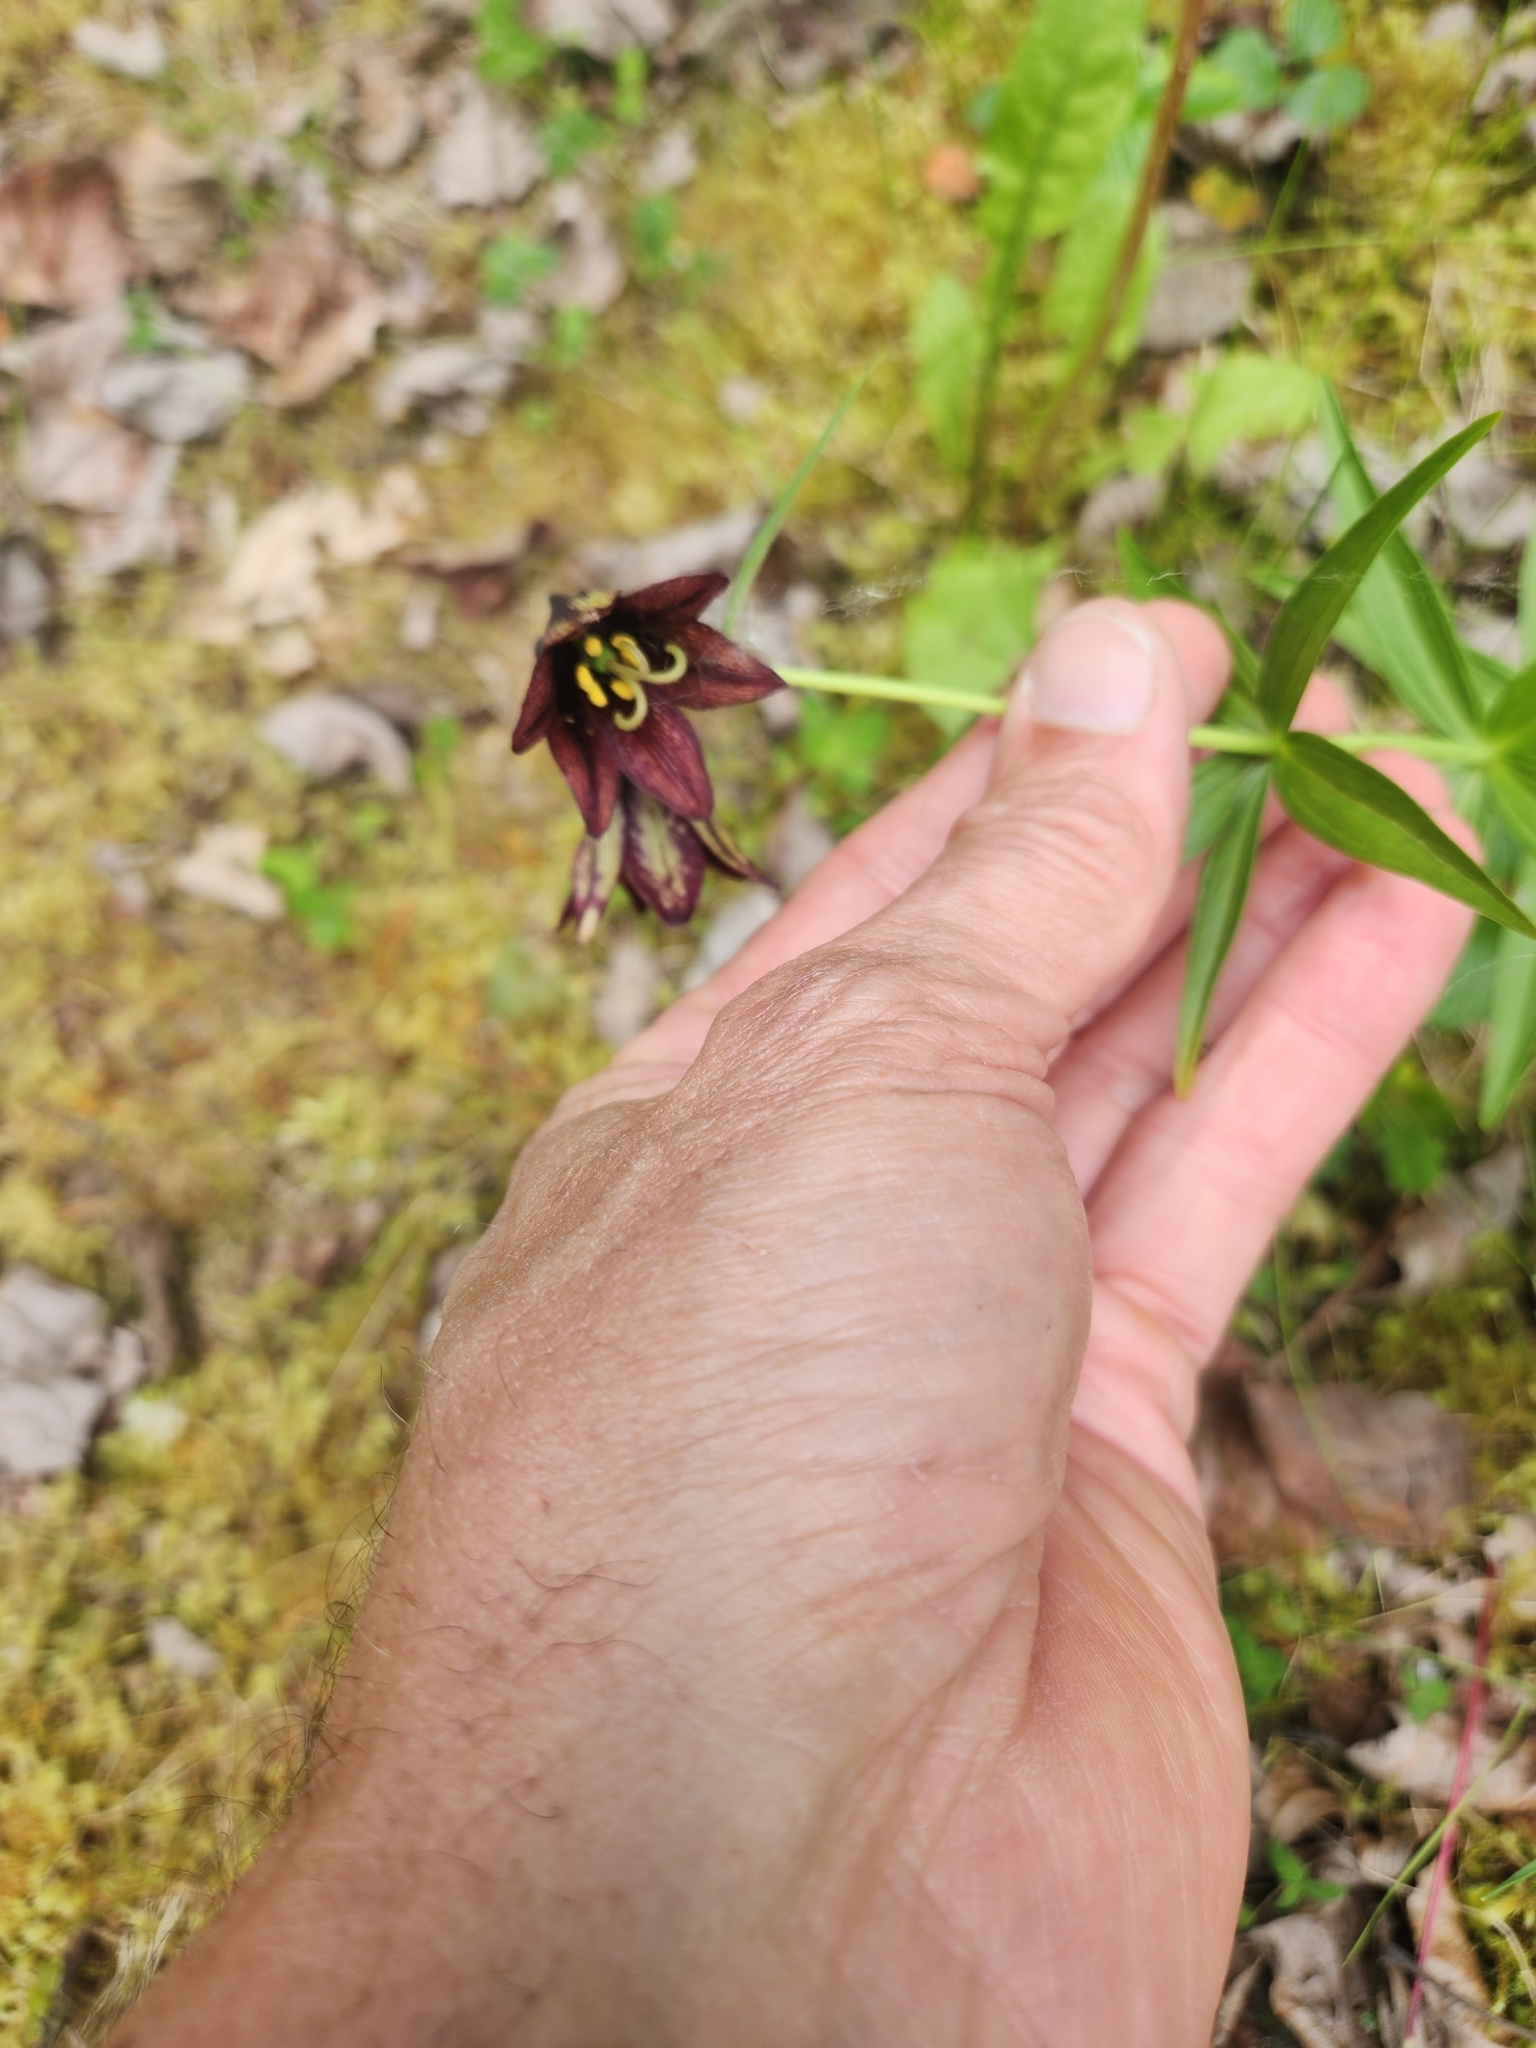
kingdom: Plantae
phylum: Tracheophyta
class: Liliopsida
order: Liliales
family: Liliaceae
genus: Fritillaria
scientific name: Fritillaria camschatcensis
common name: Kamchatka fritillary
